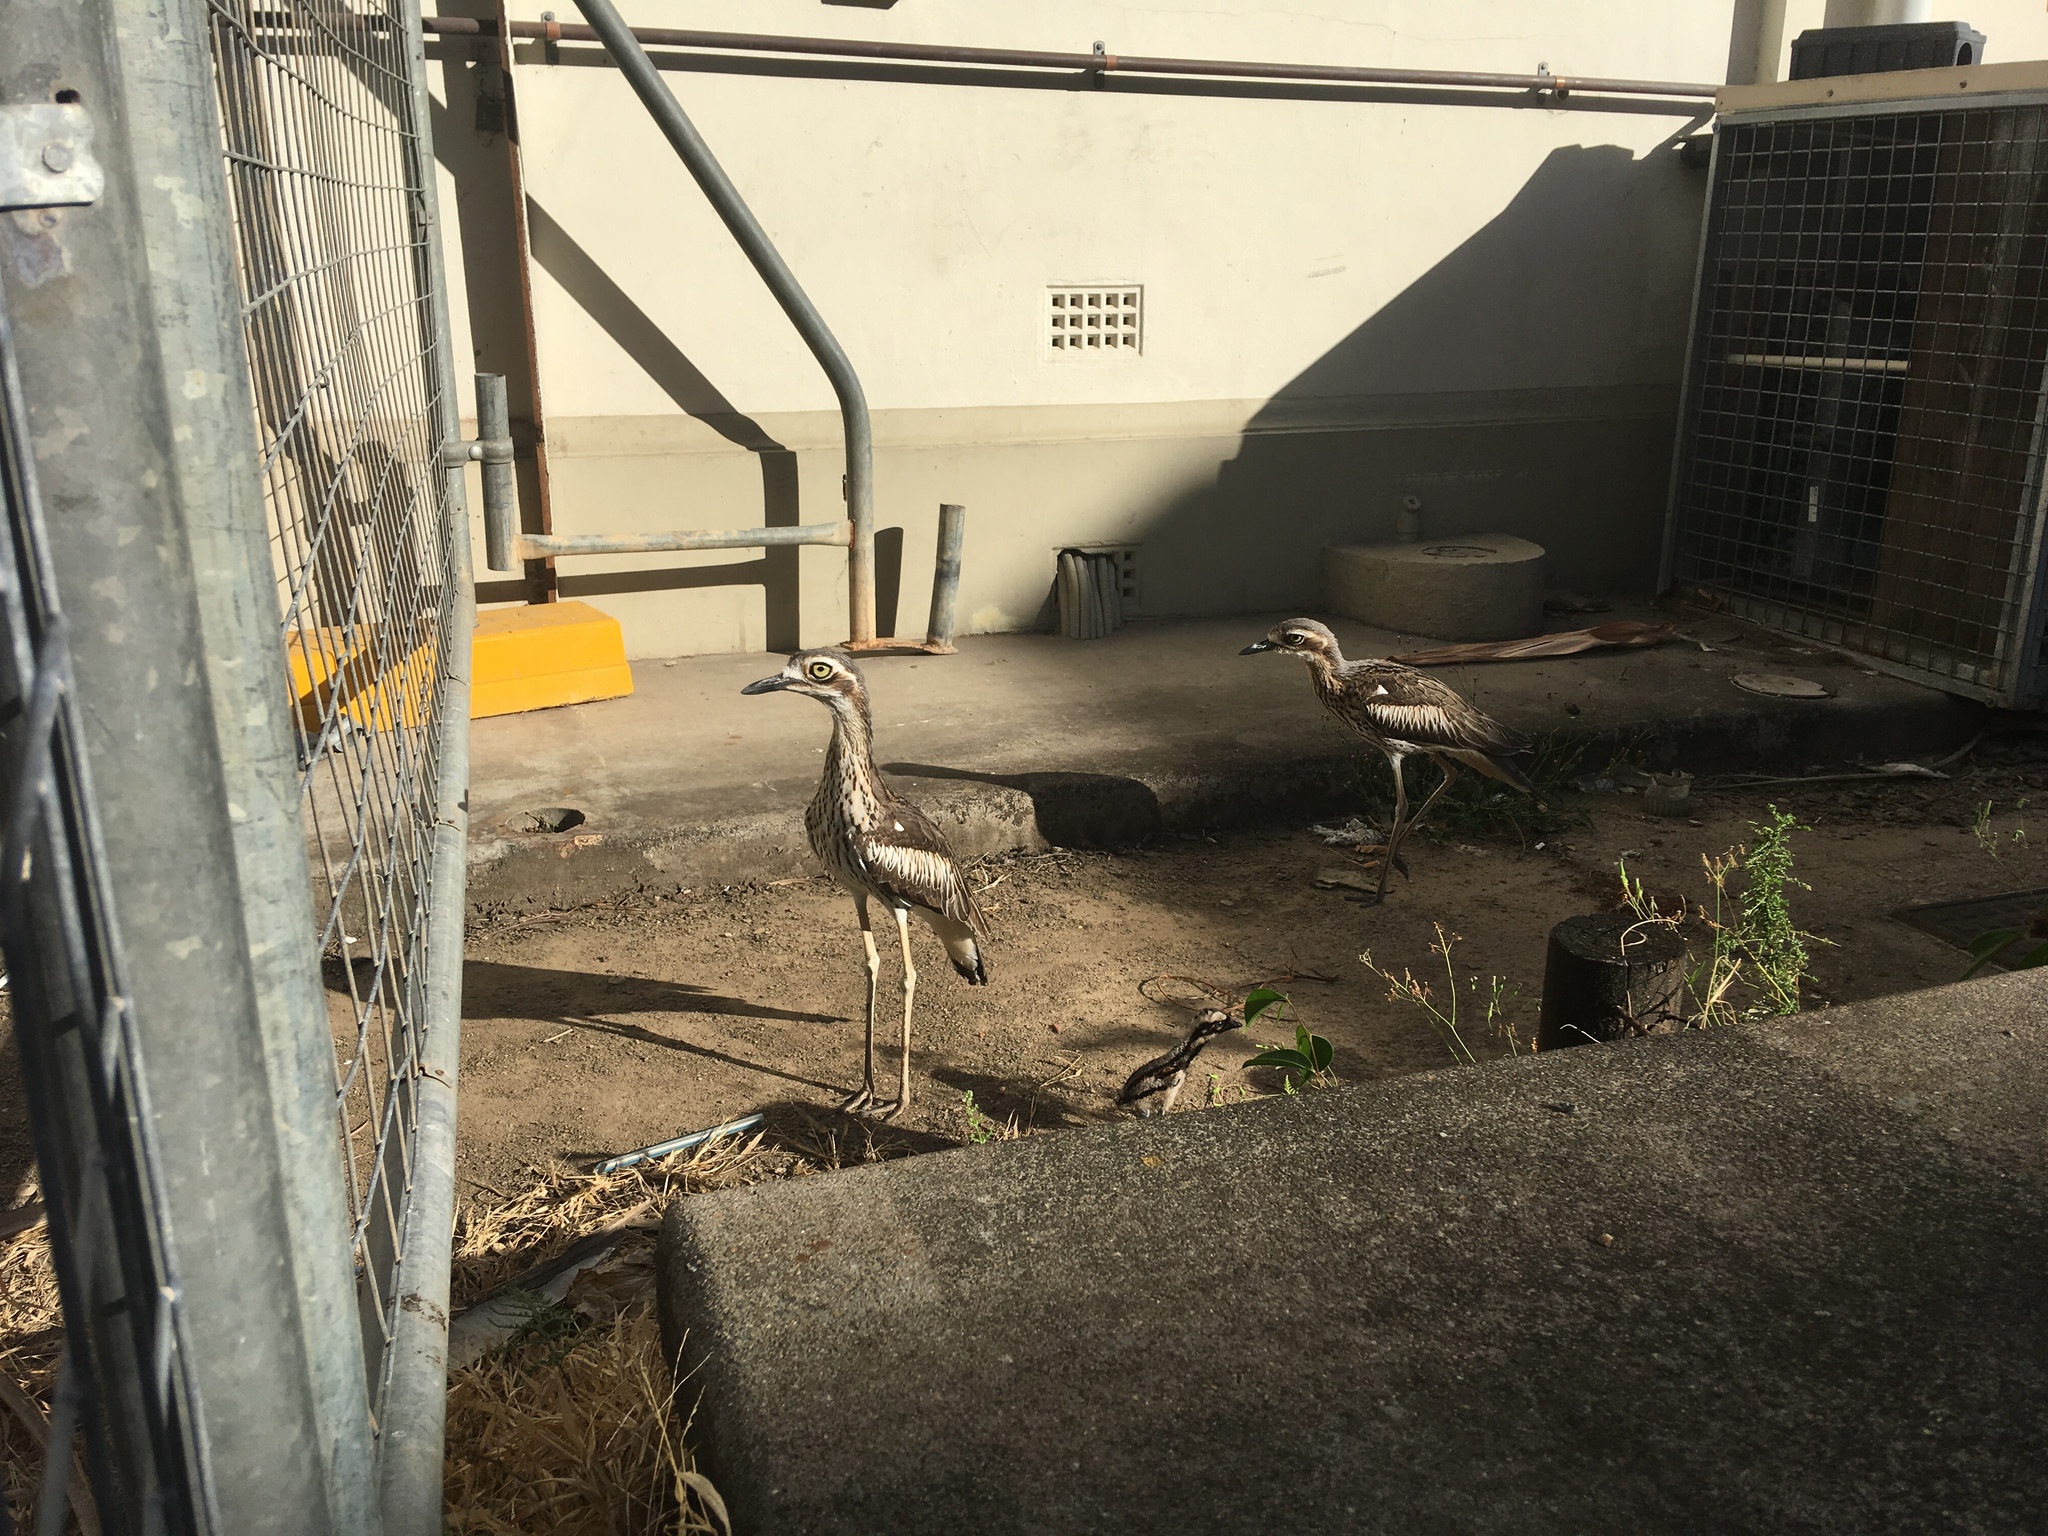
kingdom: Animalia
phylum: Chordata
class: Aves
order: Charadriiformes
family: Burhinidae
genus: Burhinus
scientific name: Burhinus grallarius
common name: Bush stone-curlew
